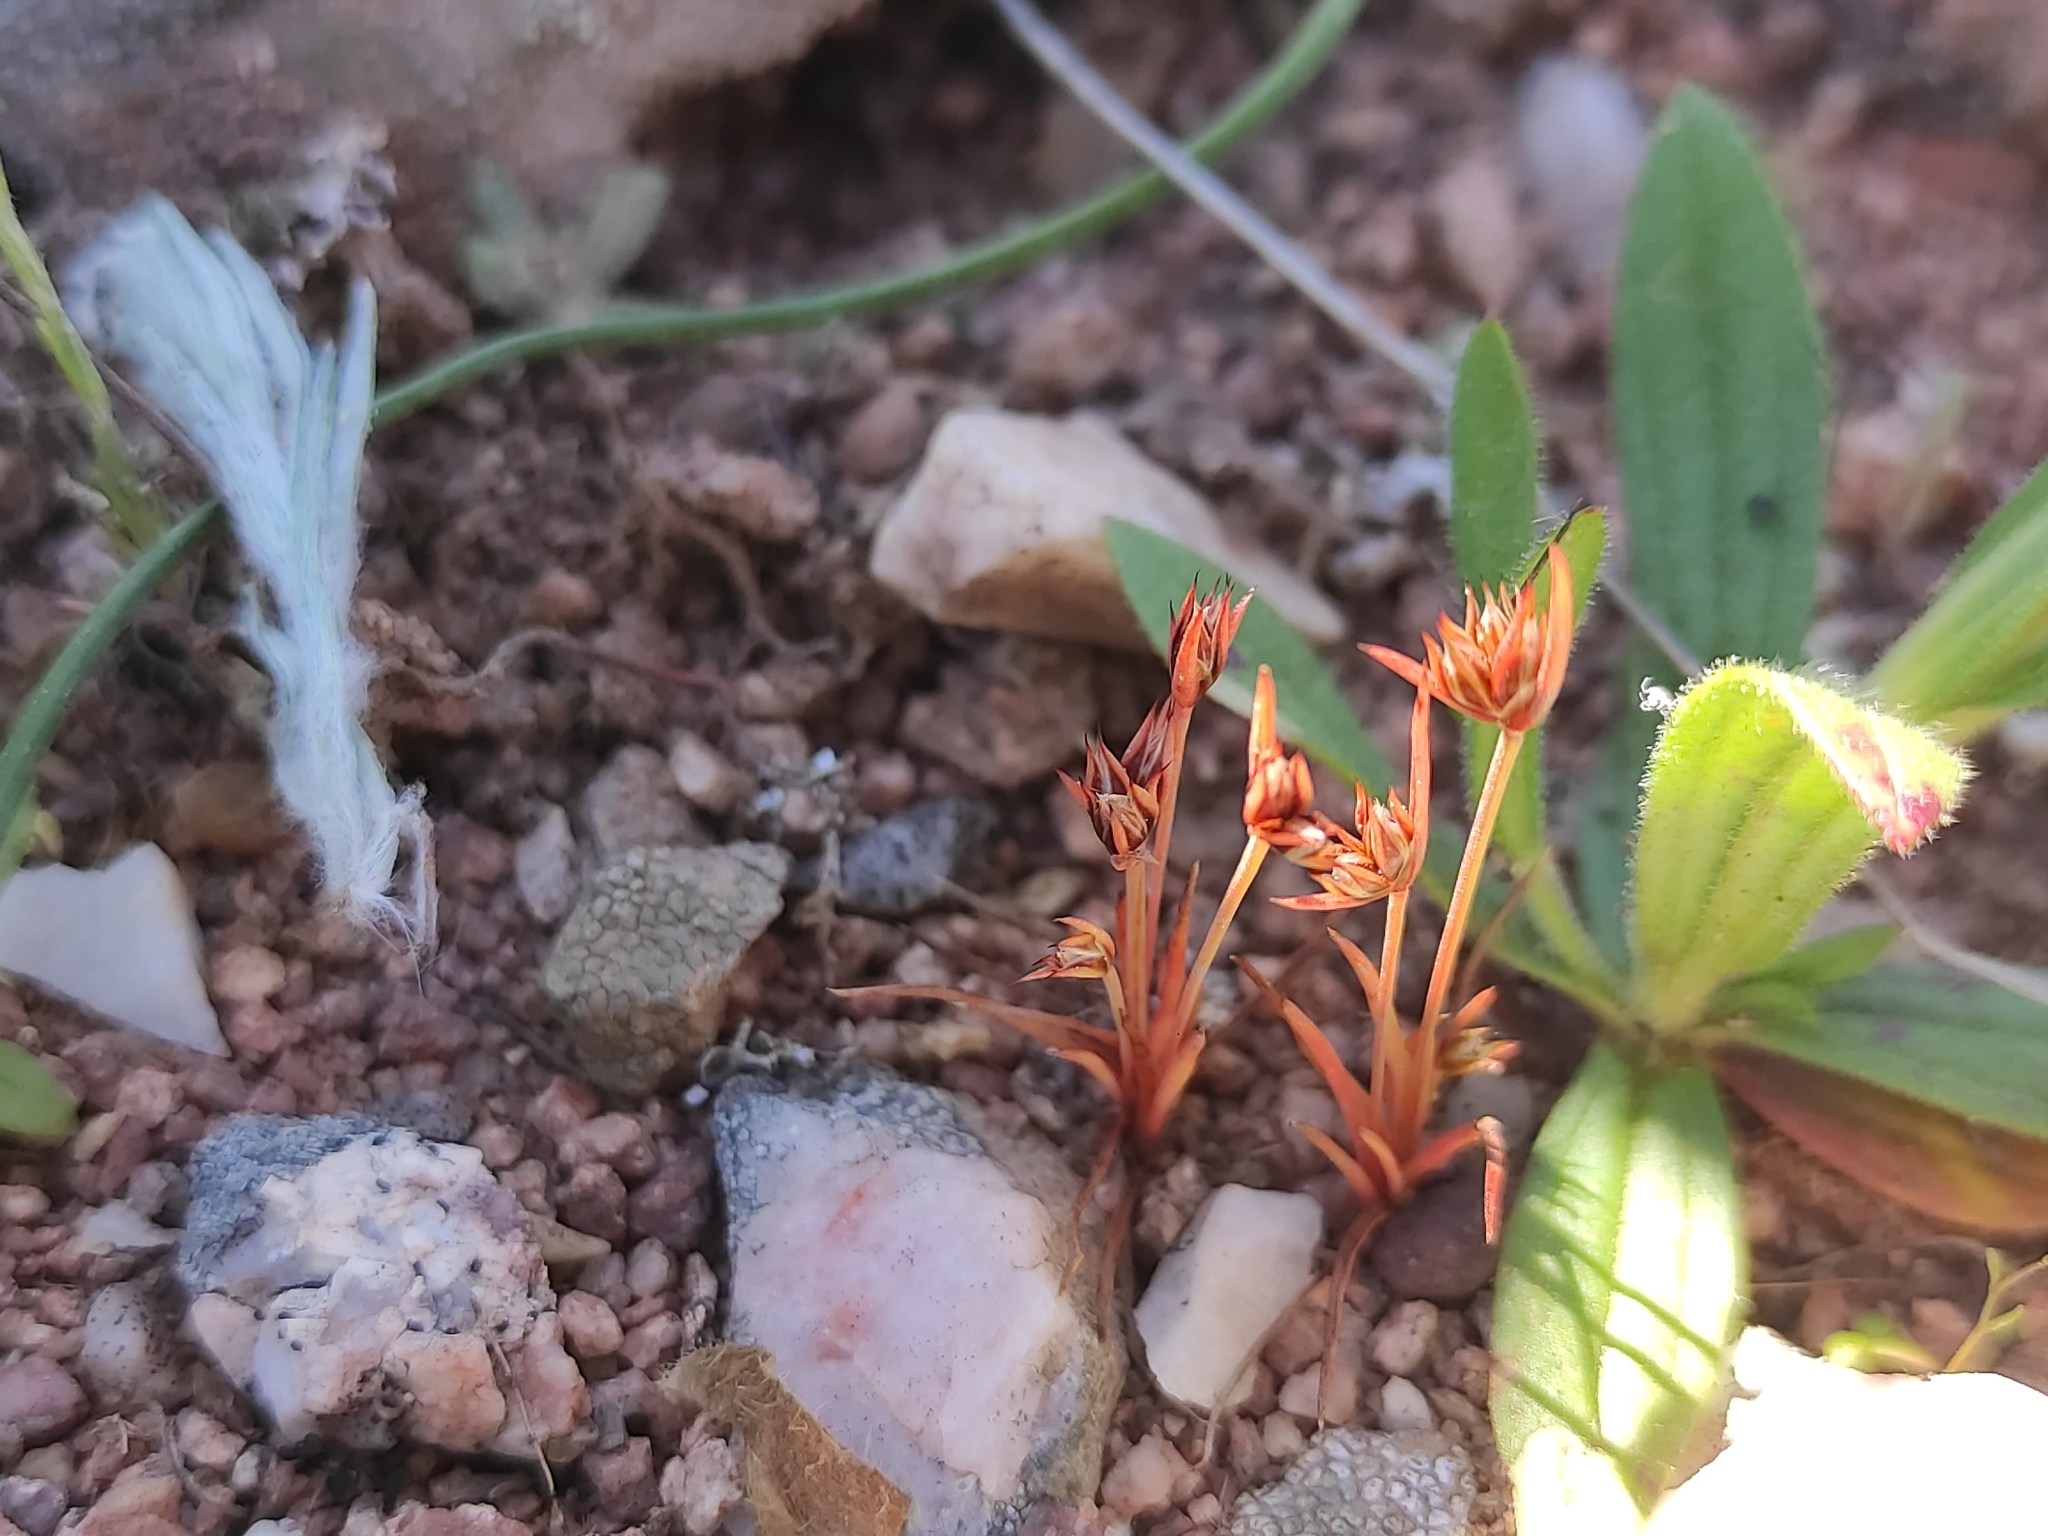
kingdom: Plantae
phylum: Tracheophyta
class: Liliopsida
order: Poales
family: Juncaceae
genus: Juncus
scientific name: Juncus capitatus
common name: Dwarf rush
